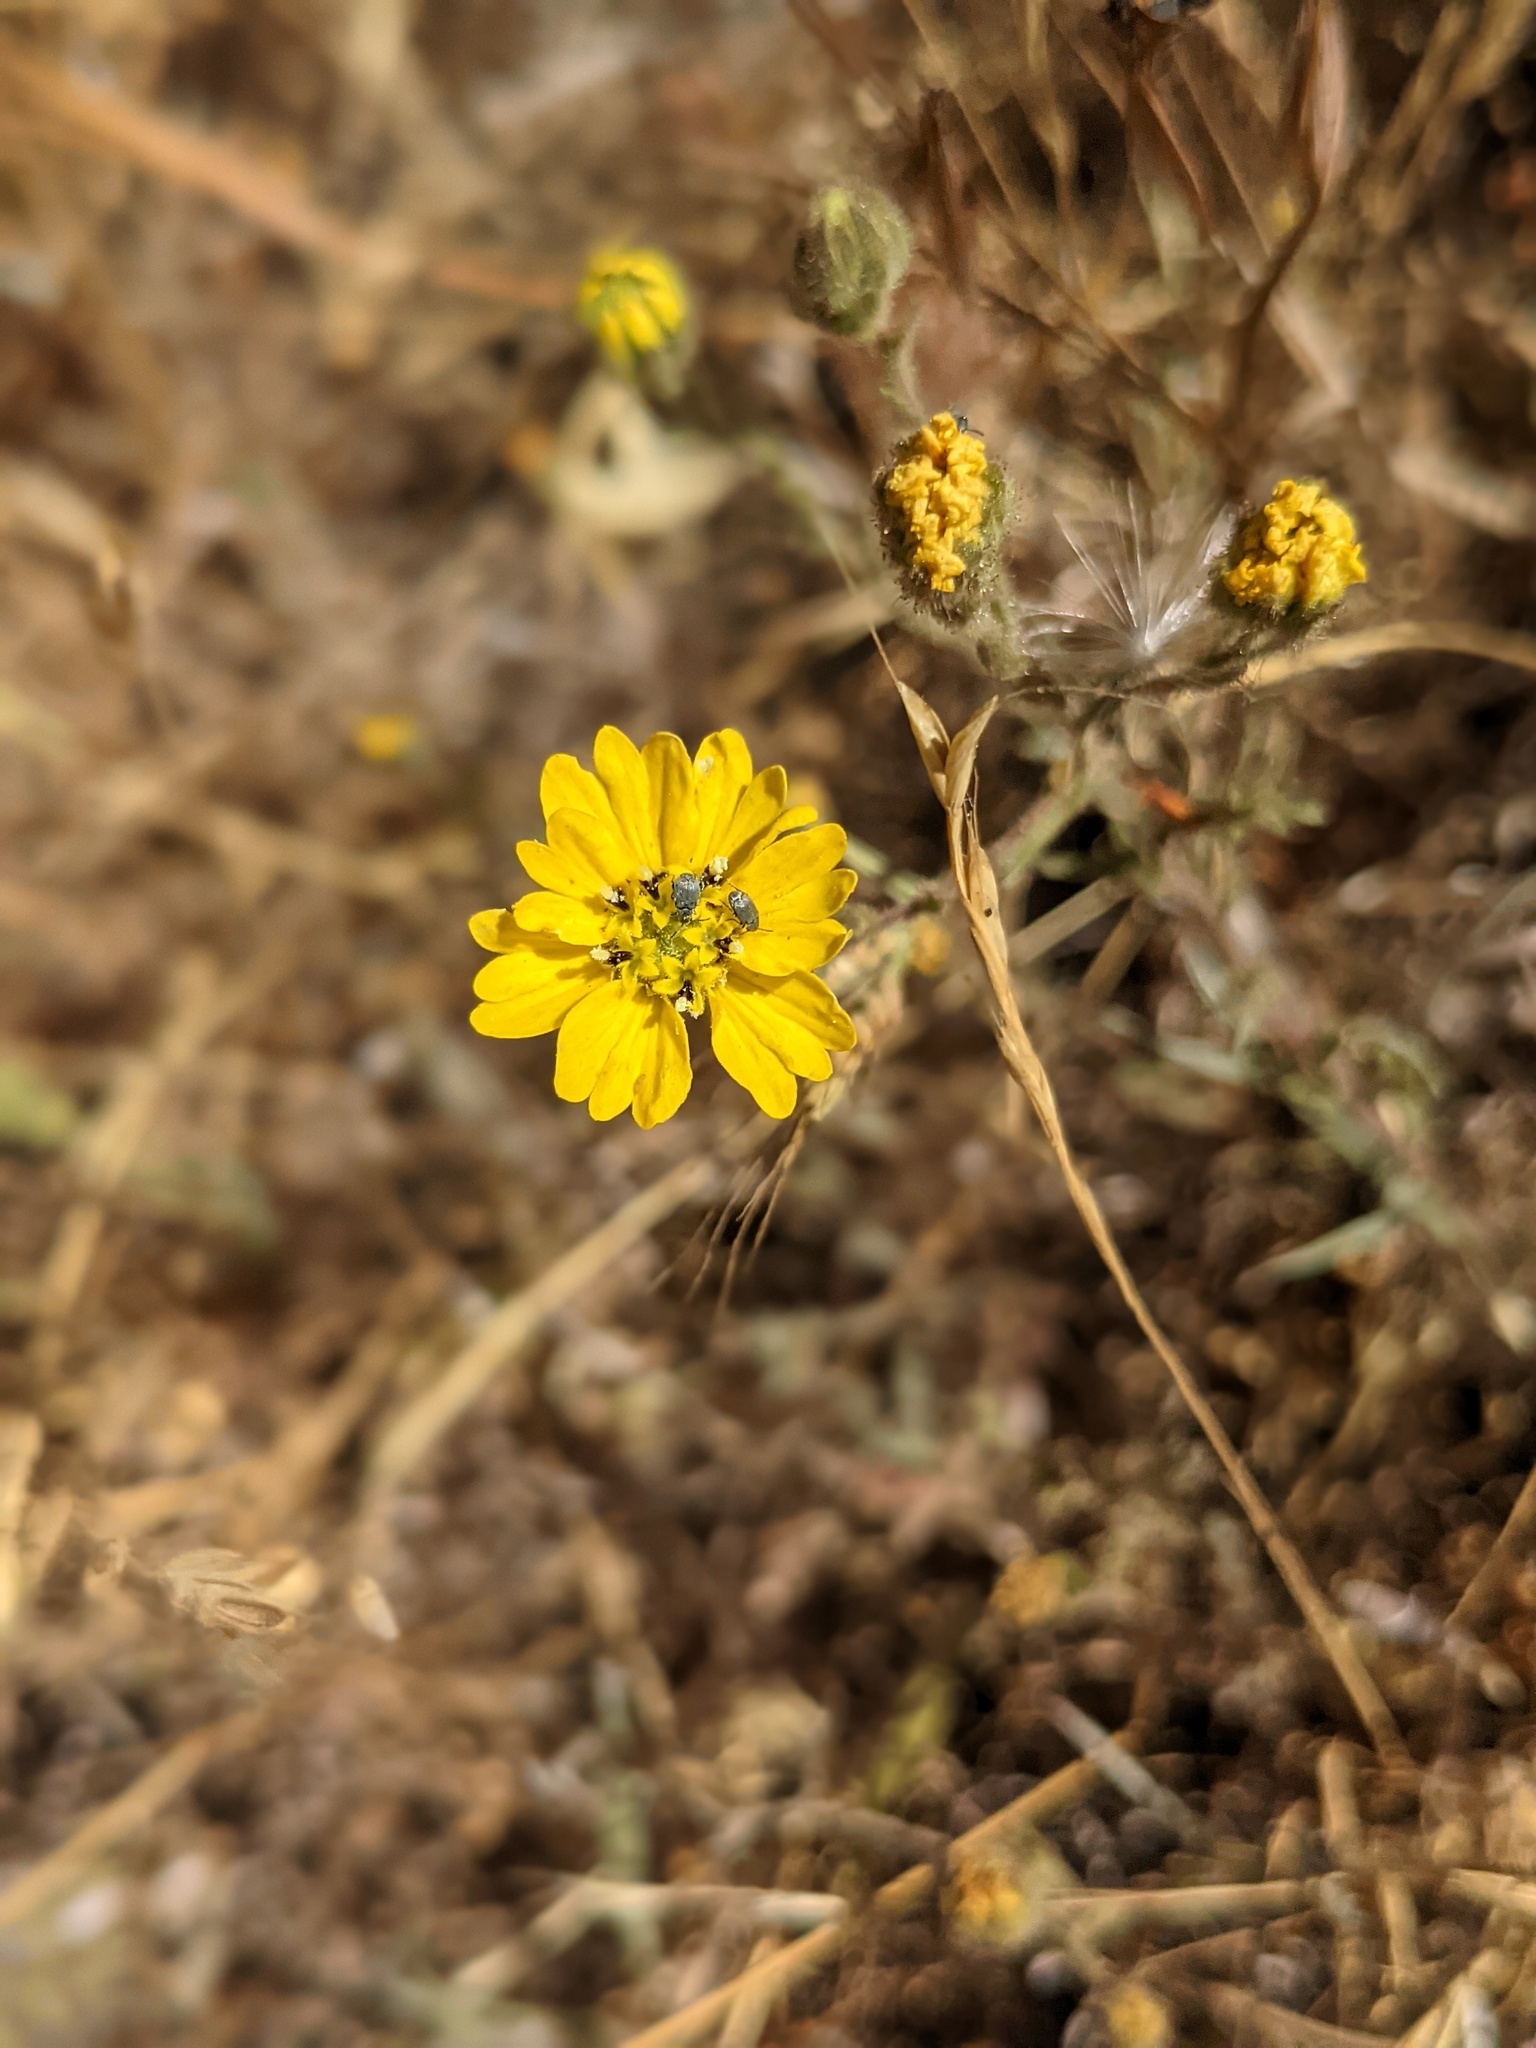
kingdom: Plantae
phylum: Tracheophyta
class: Magnoliopsida
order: Asterales
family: Asteraceae
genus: Hemizonia
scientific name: Hemizonia congesta
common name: Hayfield tarweed
